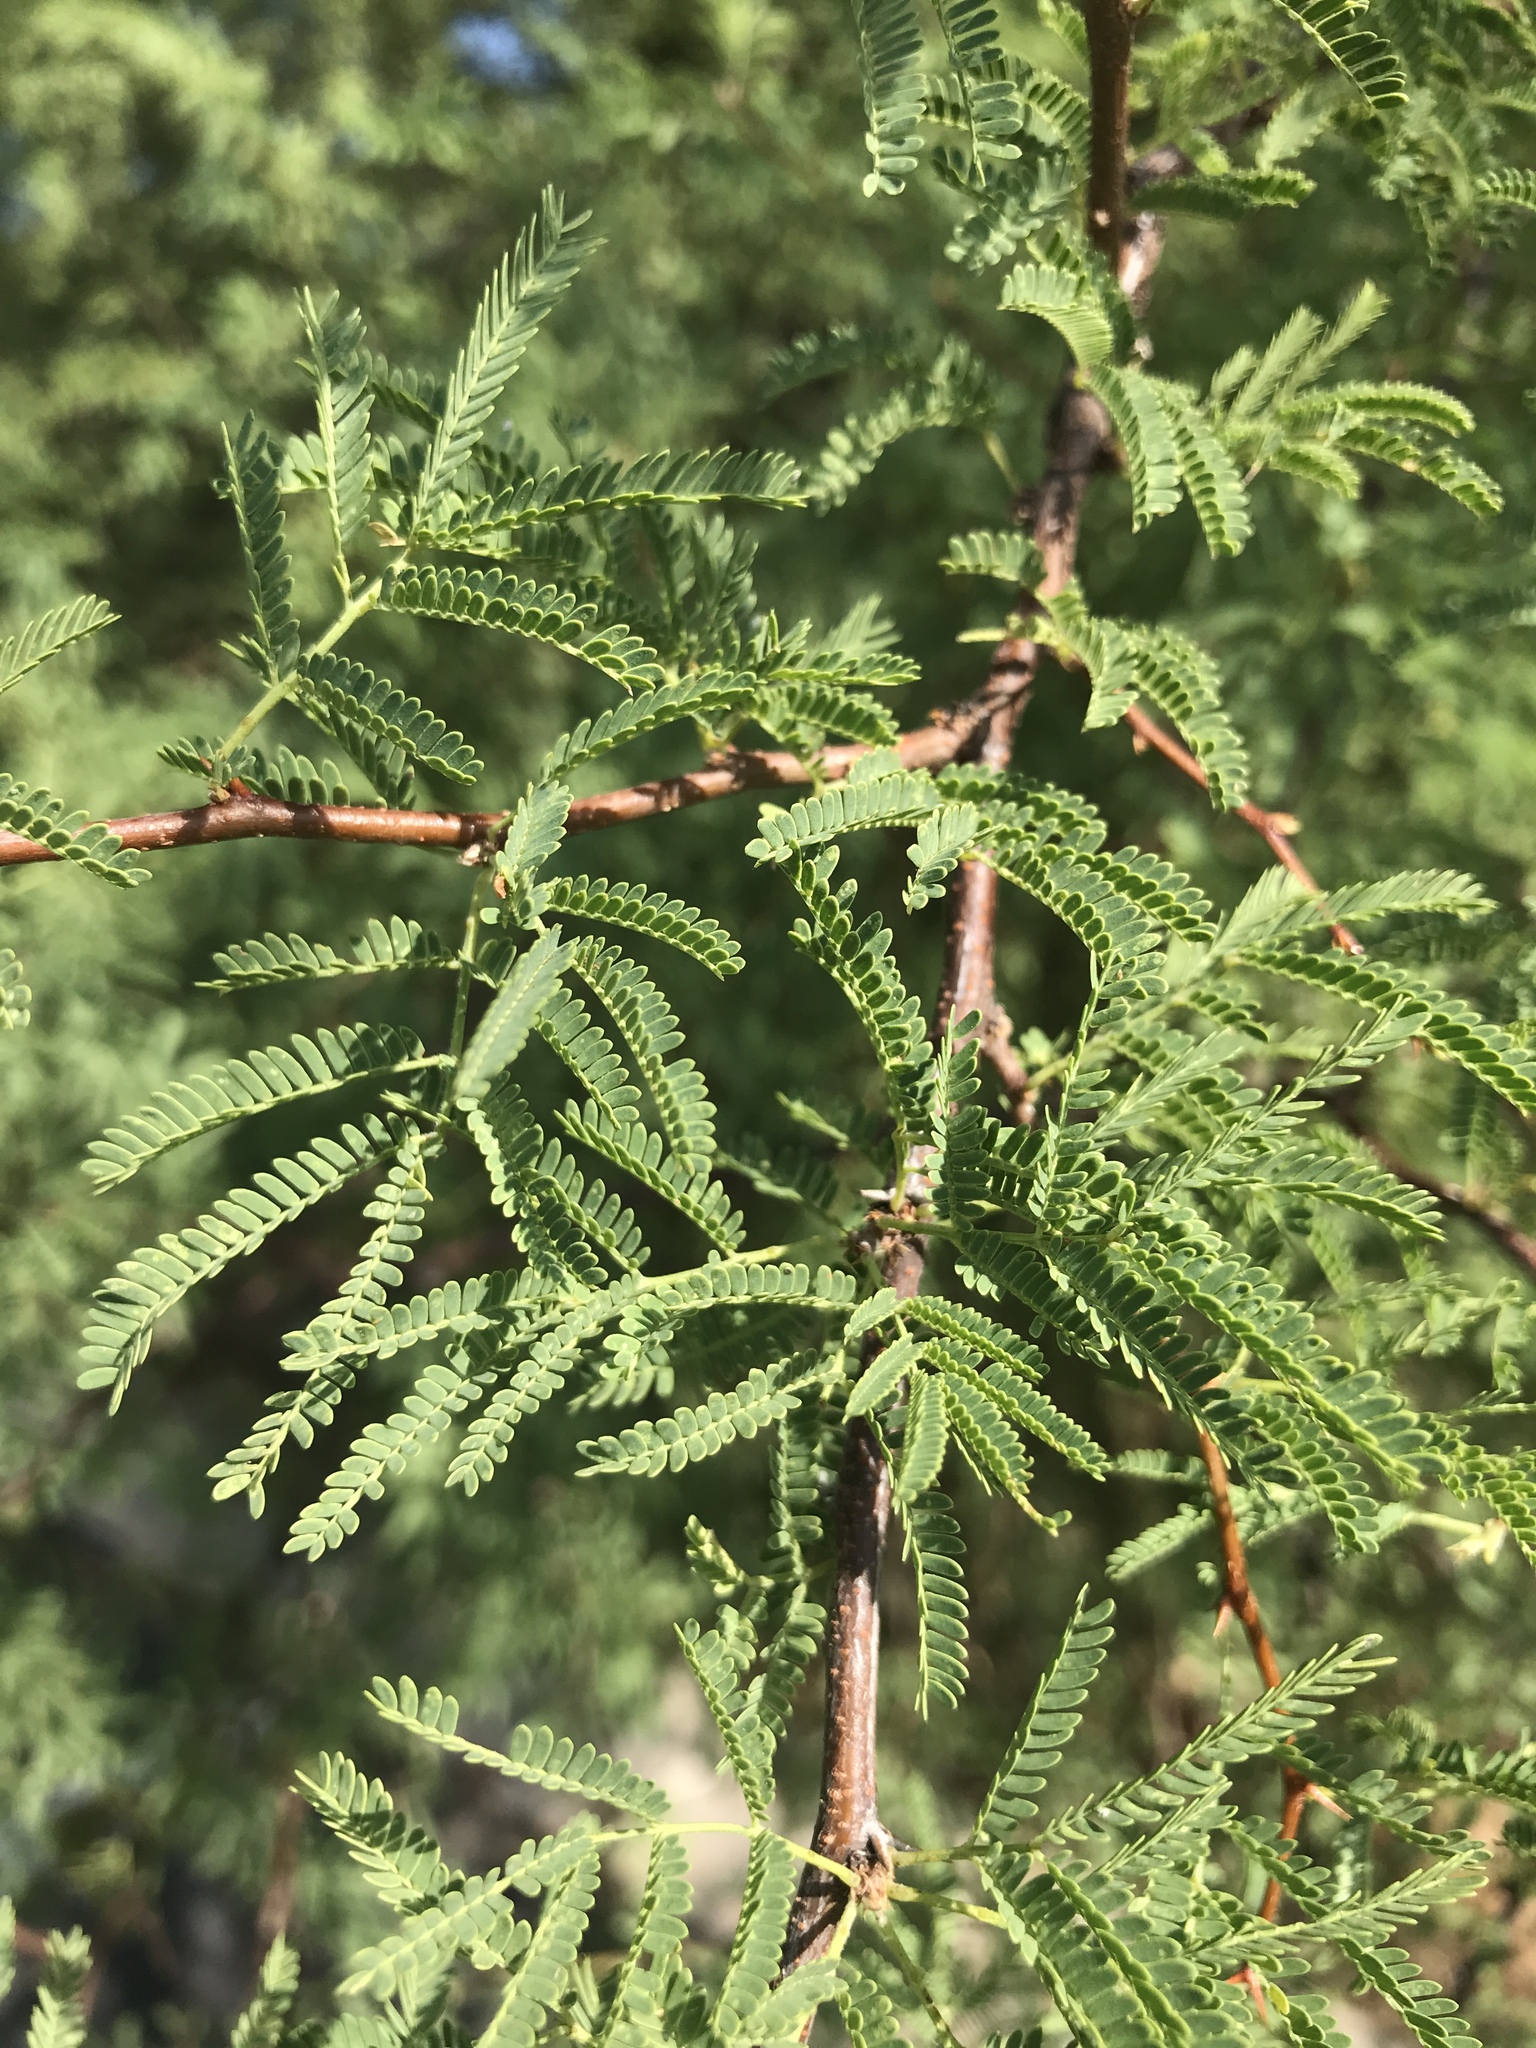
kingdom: Plantae
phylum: Tracheophyta
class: Magnoliopsida
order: Fabales
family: Fabaceae
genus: Vachellia
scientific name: Vachellia farnesiana
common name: Sweet acacia
